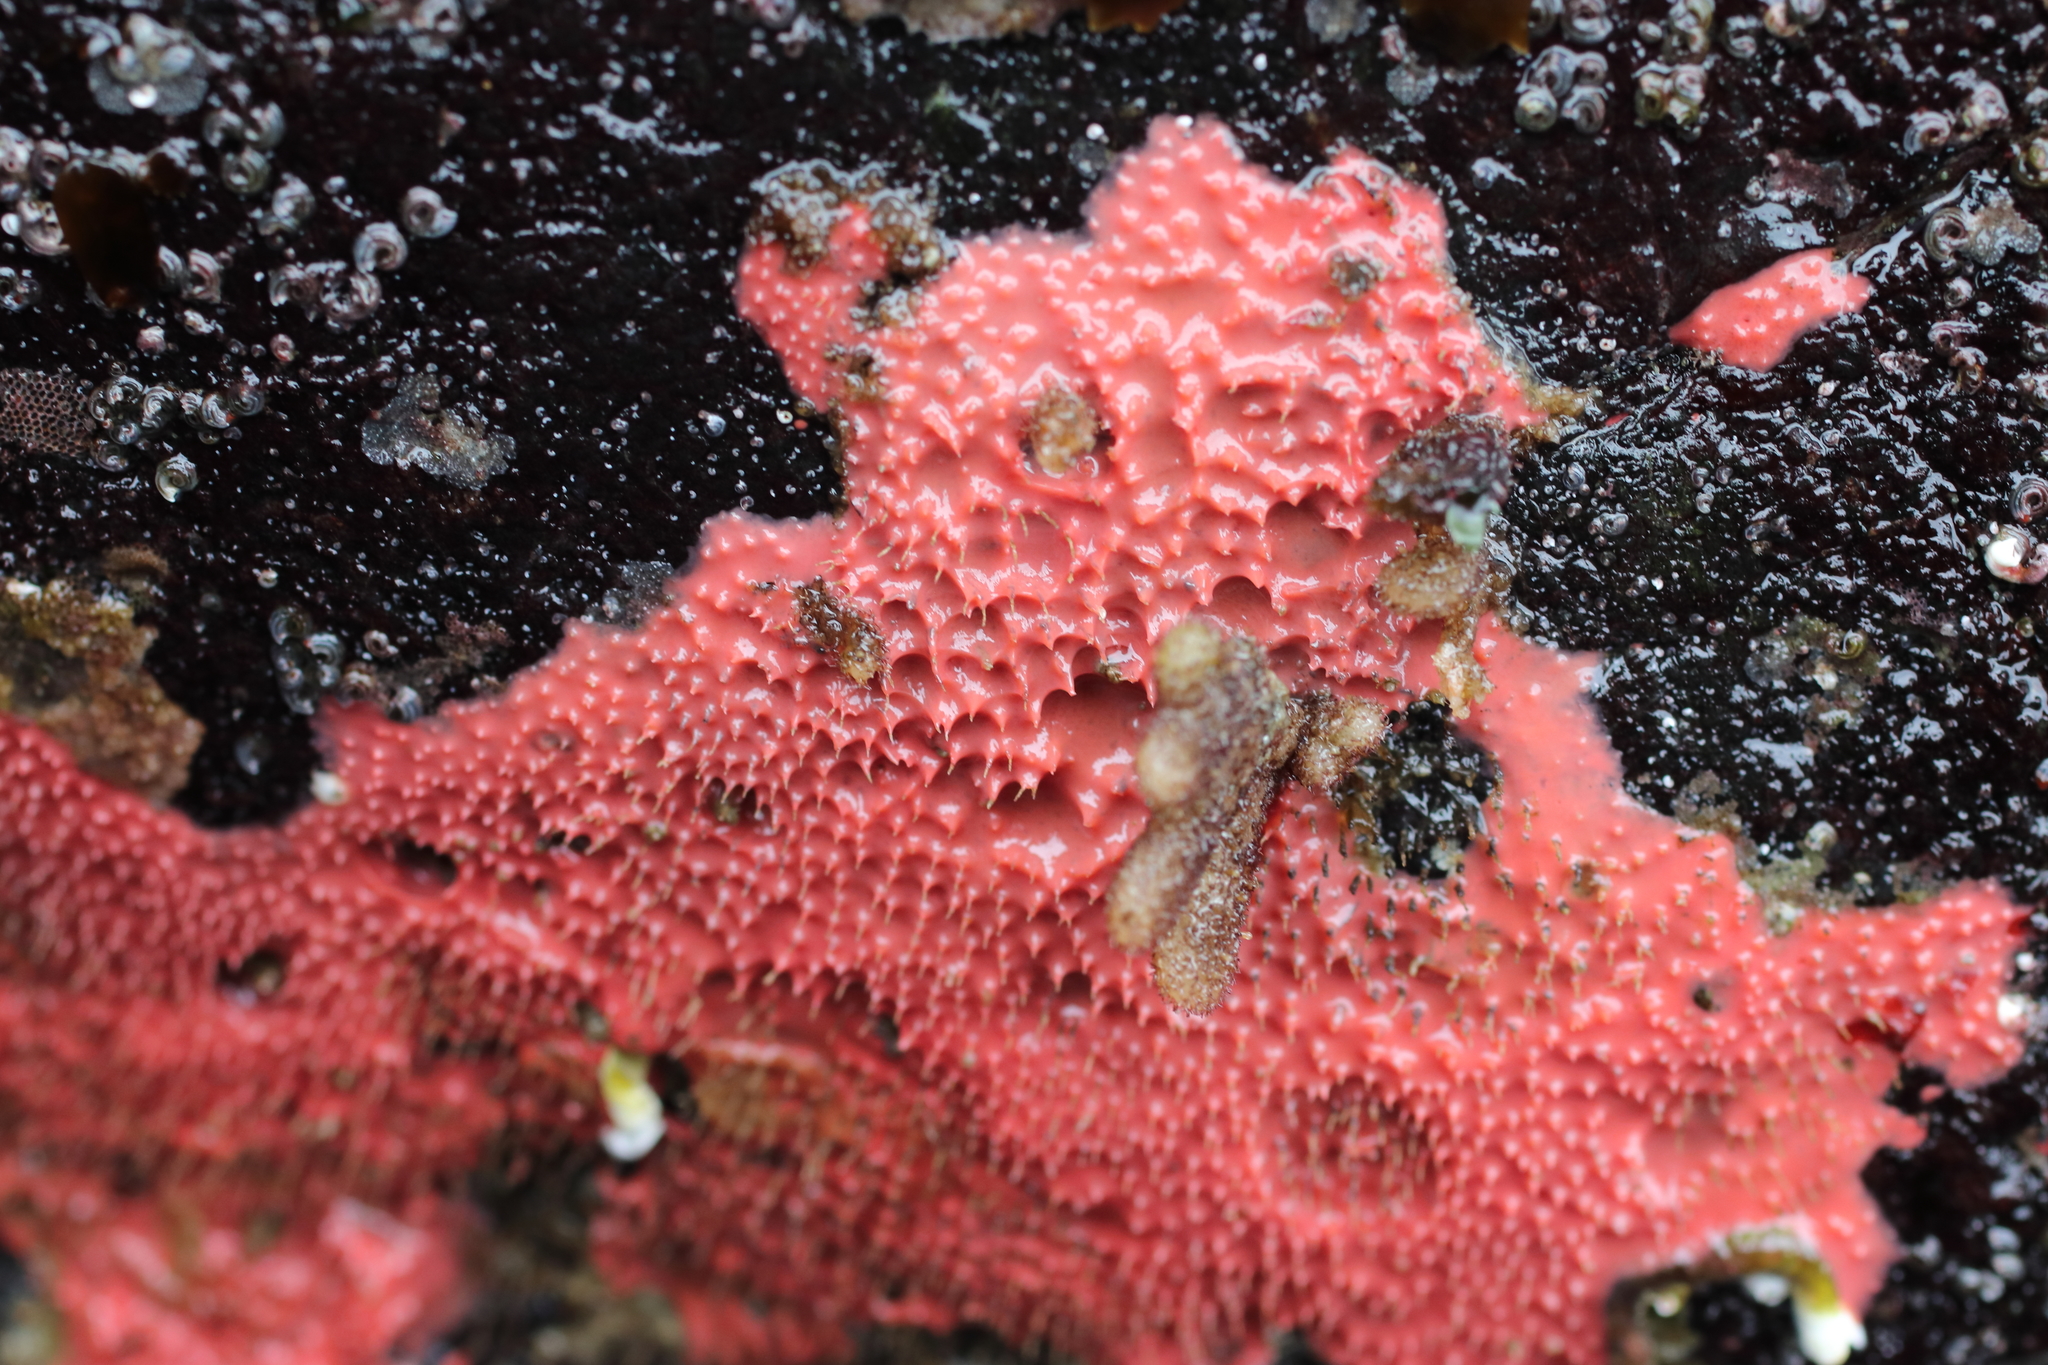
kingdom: Animalia
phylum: Porifera
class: Demospongiae
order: Dendroceratida
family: Darwinellidae
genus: Aplysilla
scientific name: Aplysilla glacialis
